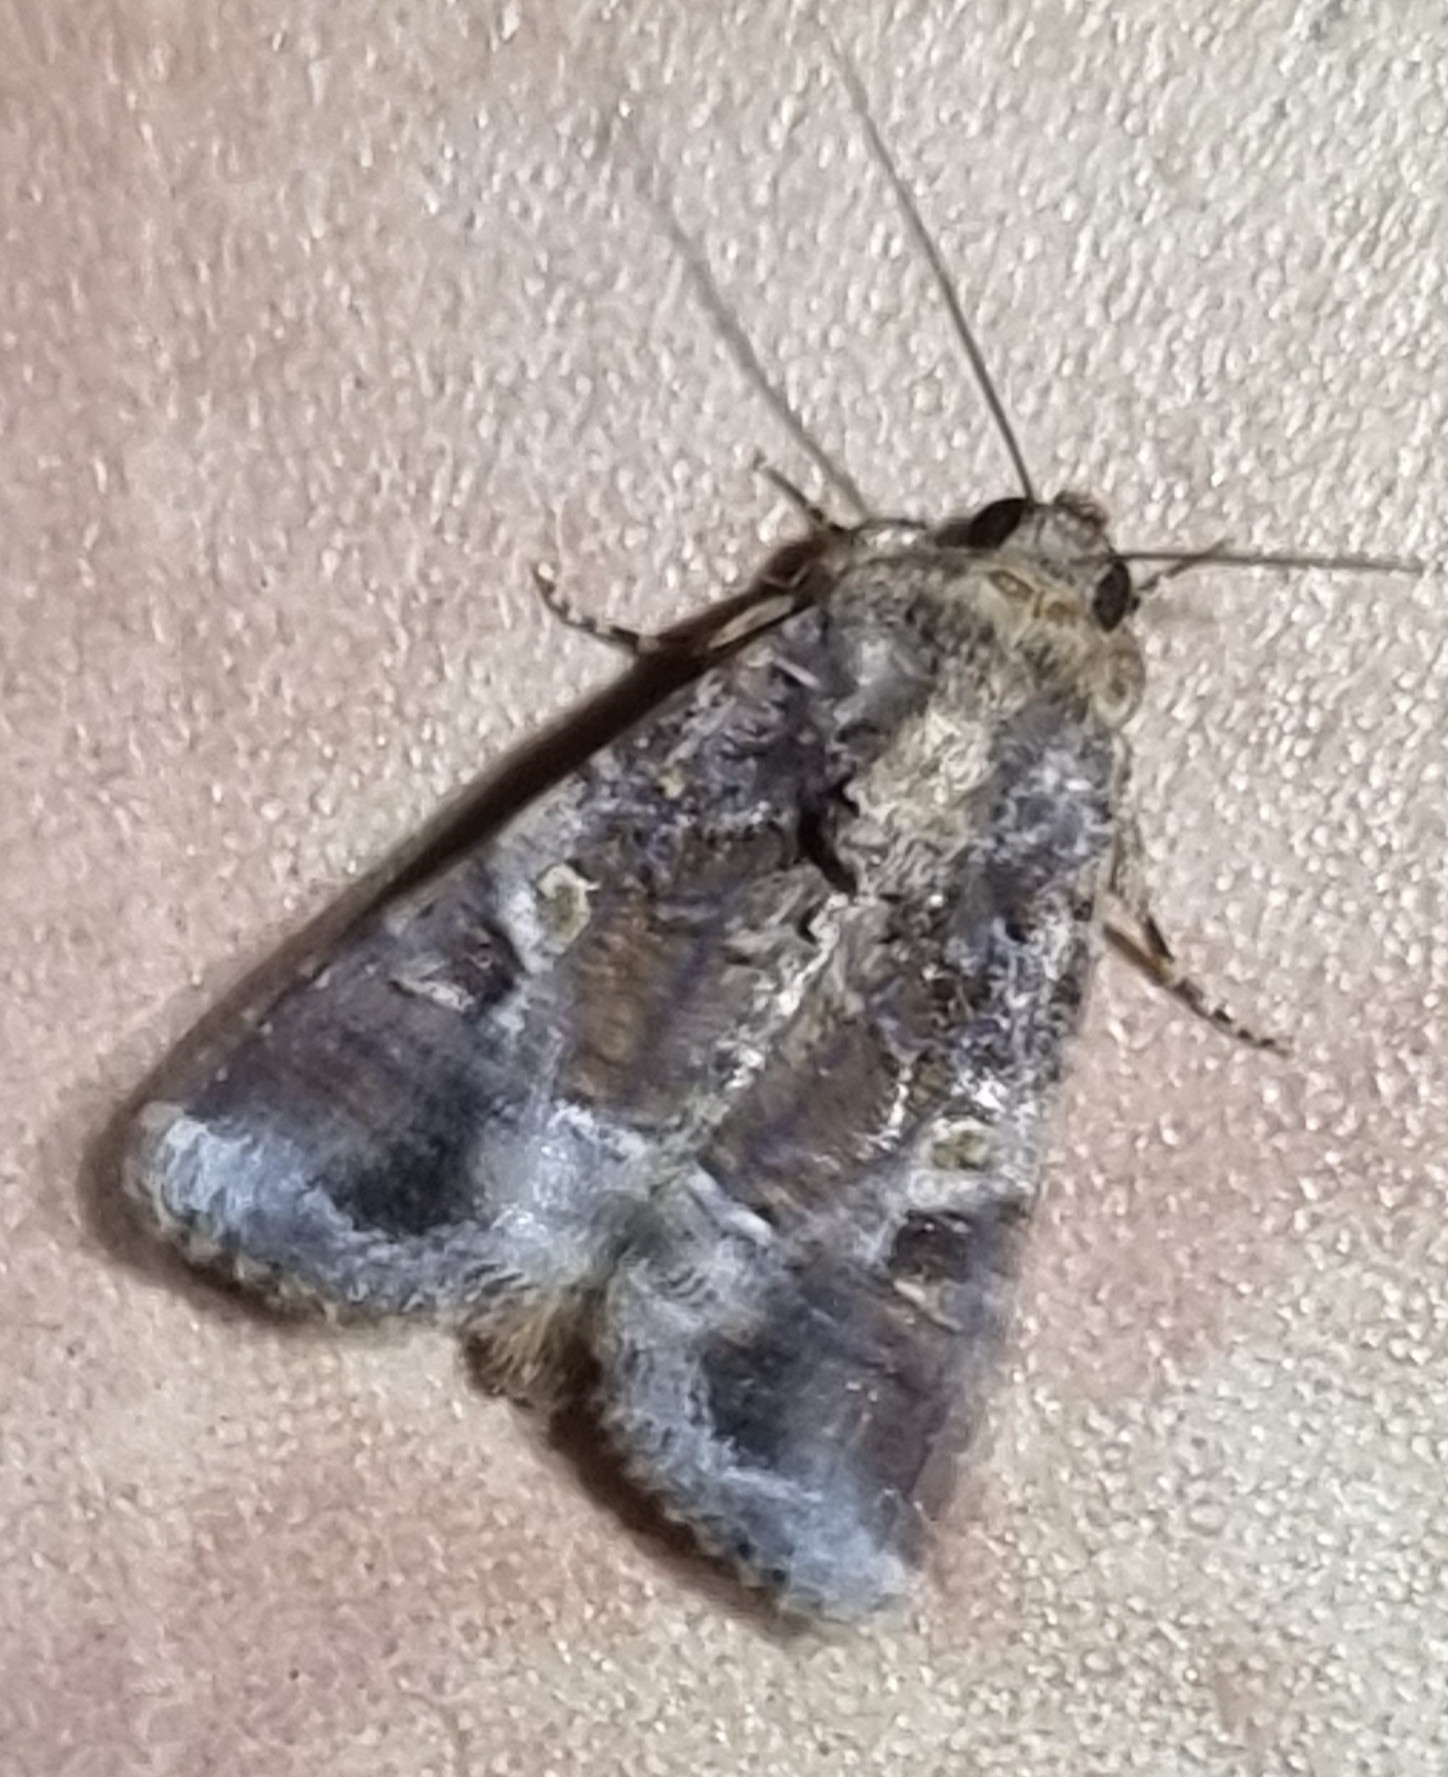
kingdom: Animalia
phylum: Arthropoda
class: Insecta
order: Lepidoptera
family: Noctuidae
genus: Spodoptera
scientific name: Spodoptera mauritia
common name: Lawn armyworm
